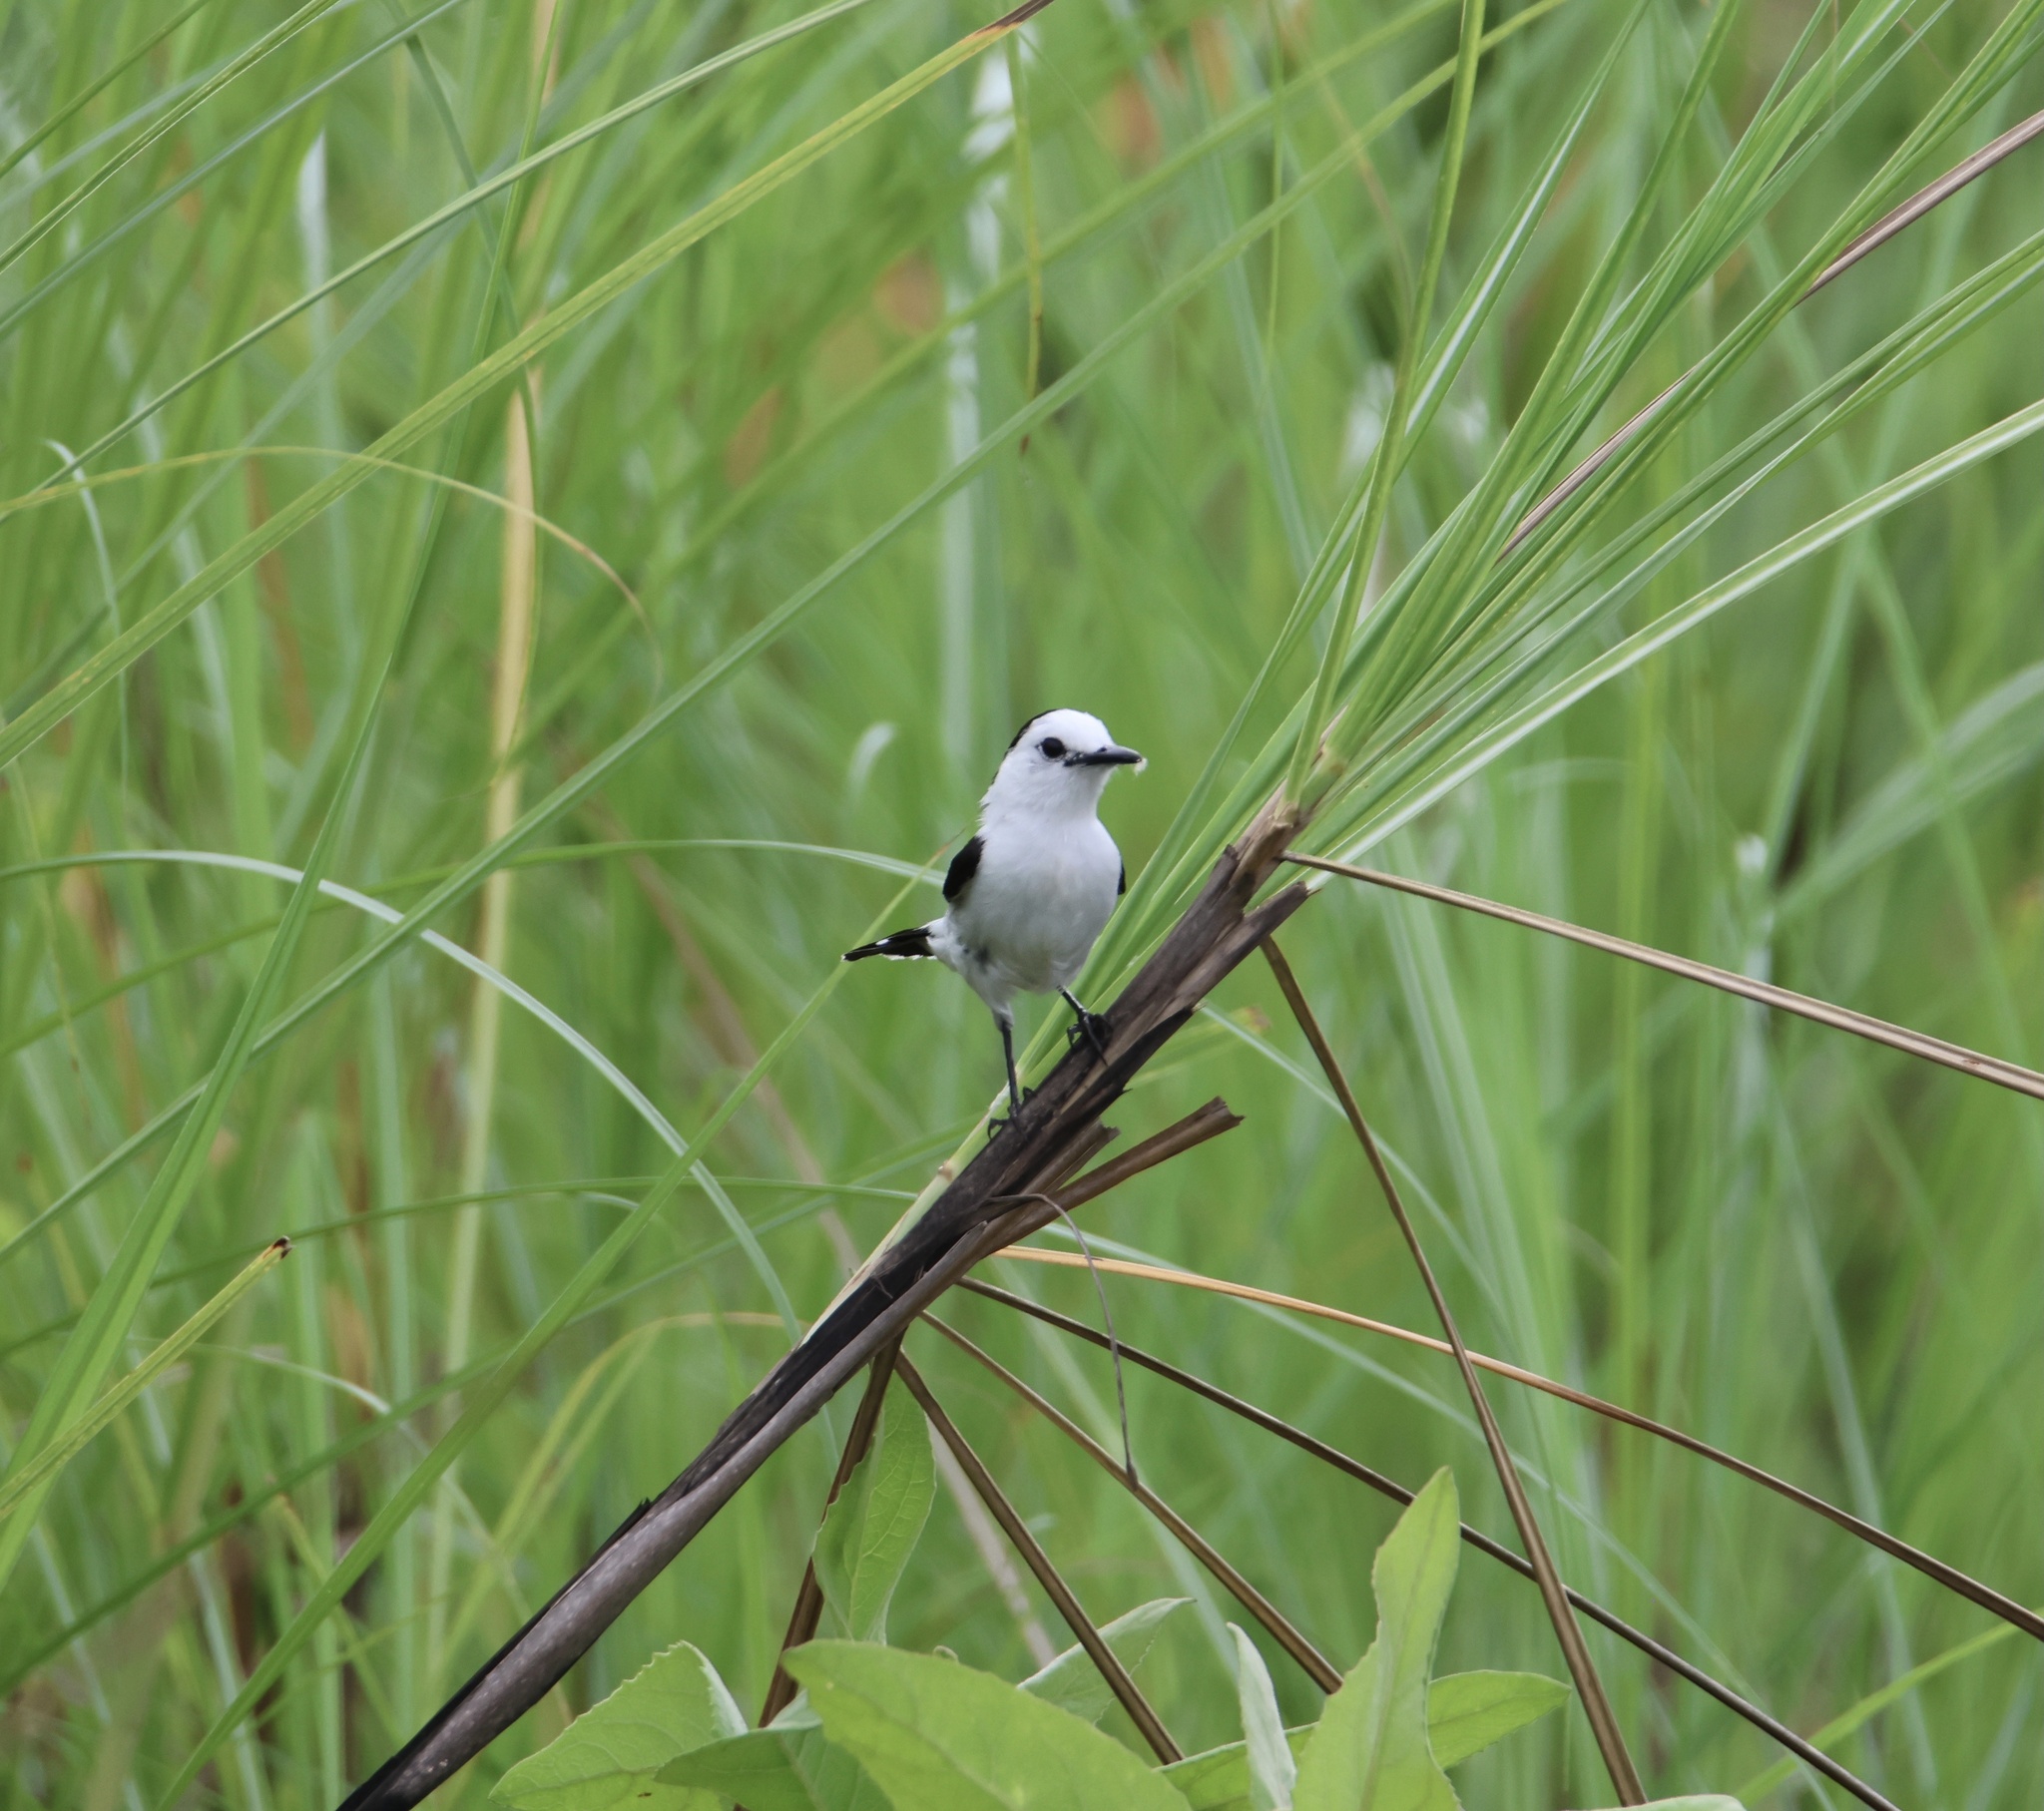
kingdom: Animalia
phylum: Chordata
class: Aves
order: Passeriformes
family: Tyrannidae
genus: Fluvicola
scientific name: Fluvicola pica
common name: Pied water-tyrant
